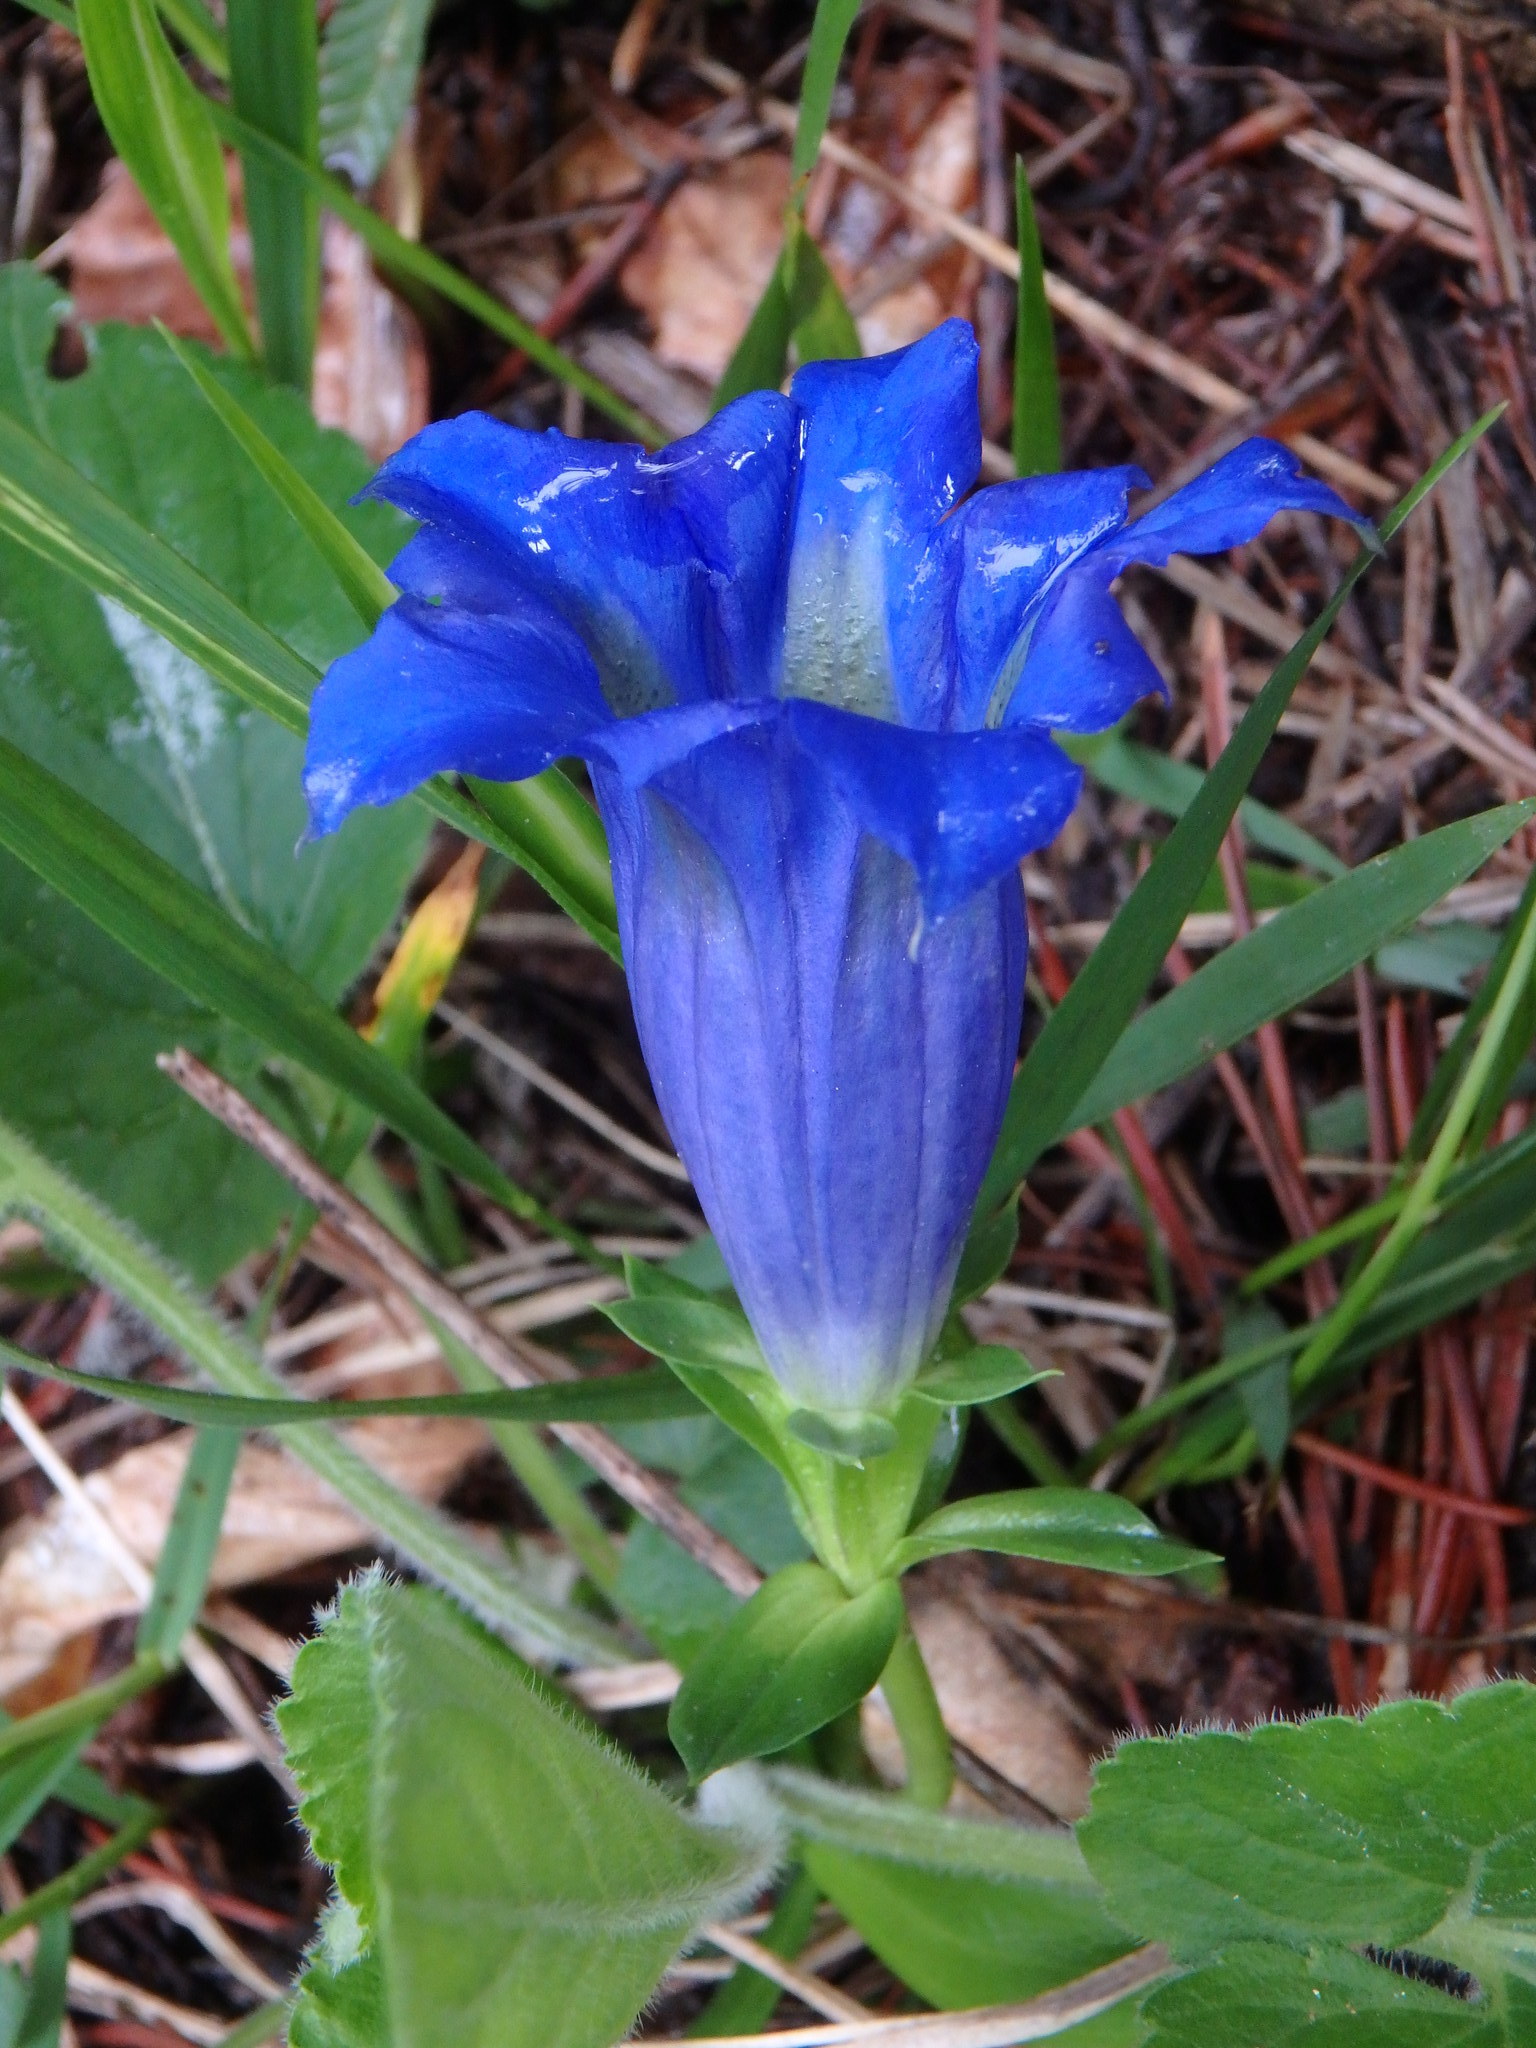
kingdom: Plantae
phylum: Tracheophyta
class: Magnoliopsida
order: Gentianales
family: Gentianaceae
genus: Gentiana
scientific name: Gentiana acaulis
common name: Trumpet gentian
